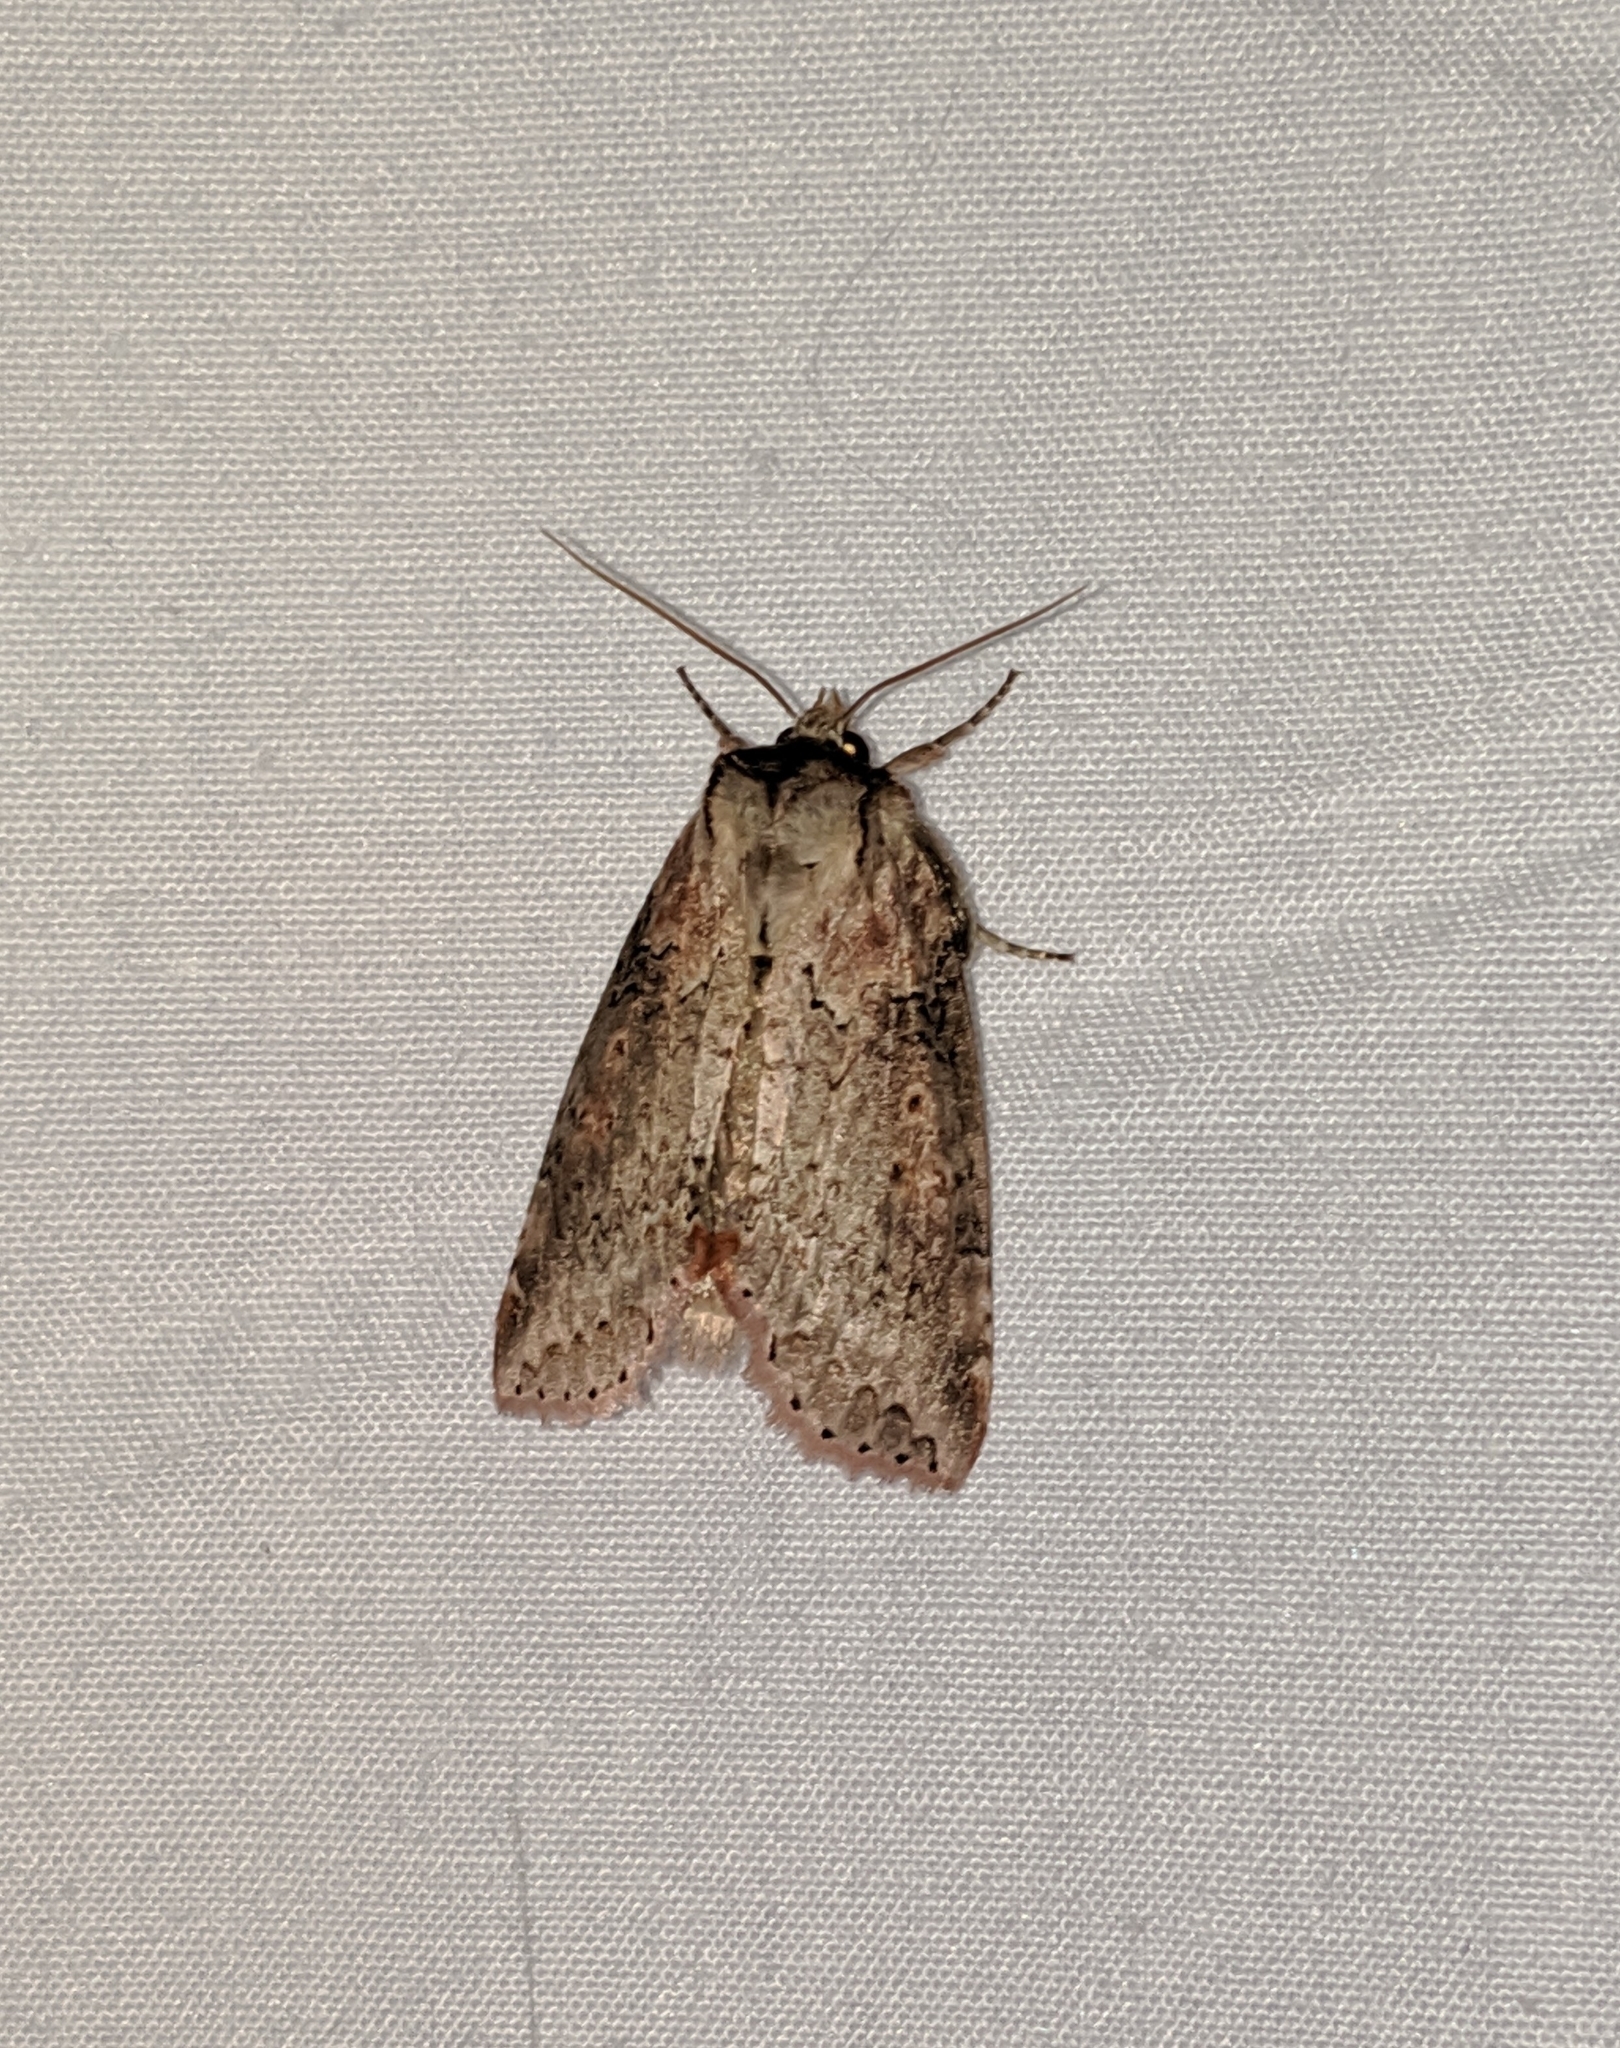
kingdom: Animalia
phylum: Arthropoda
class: Insecta
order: Lepidoptera
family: Drepanidae
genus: Pseudothyatira
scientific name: Pseudothyatira cymatophoroides
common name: Tufted thyatirid moth
